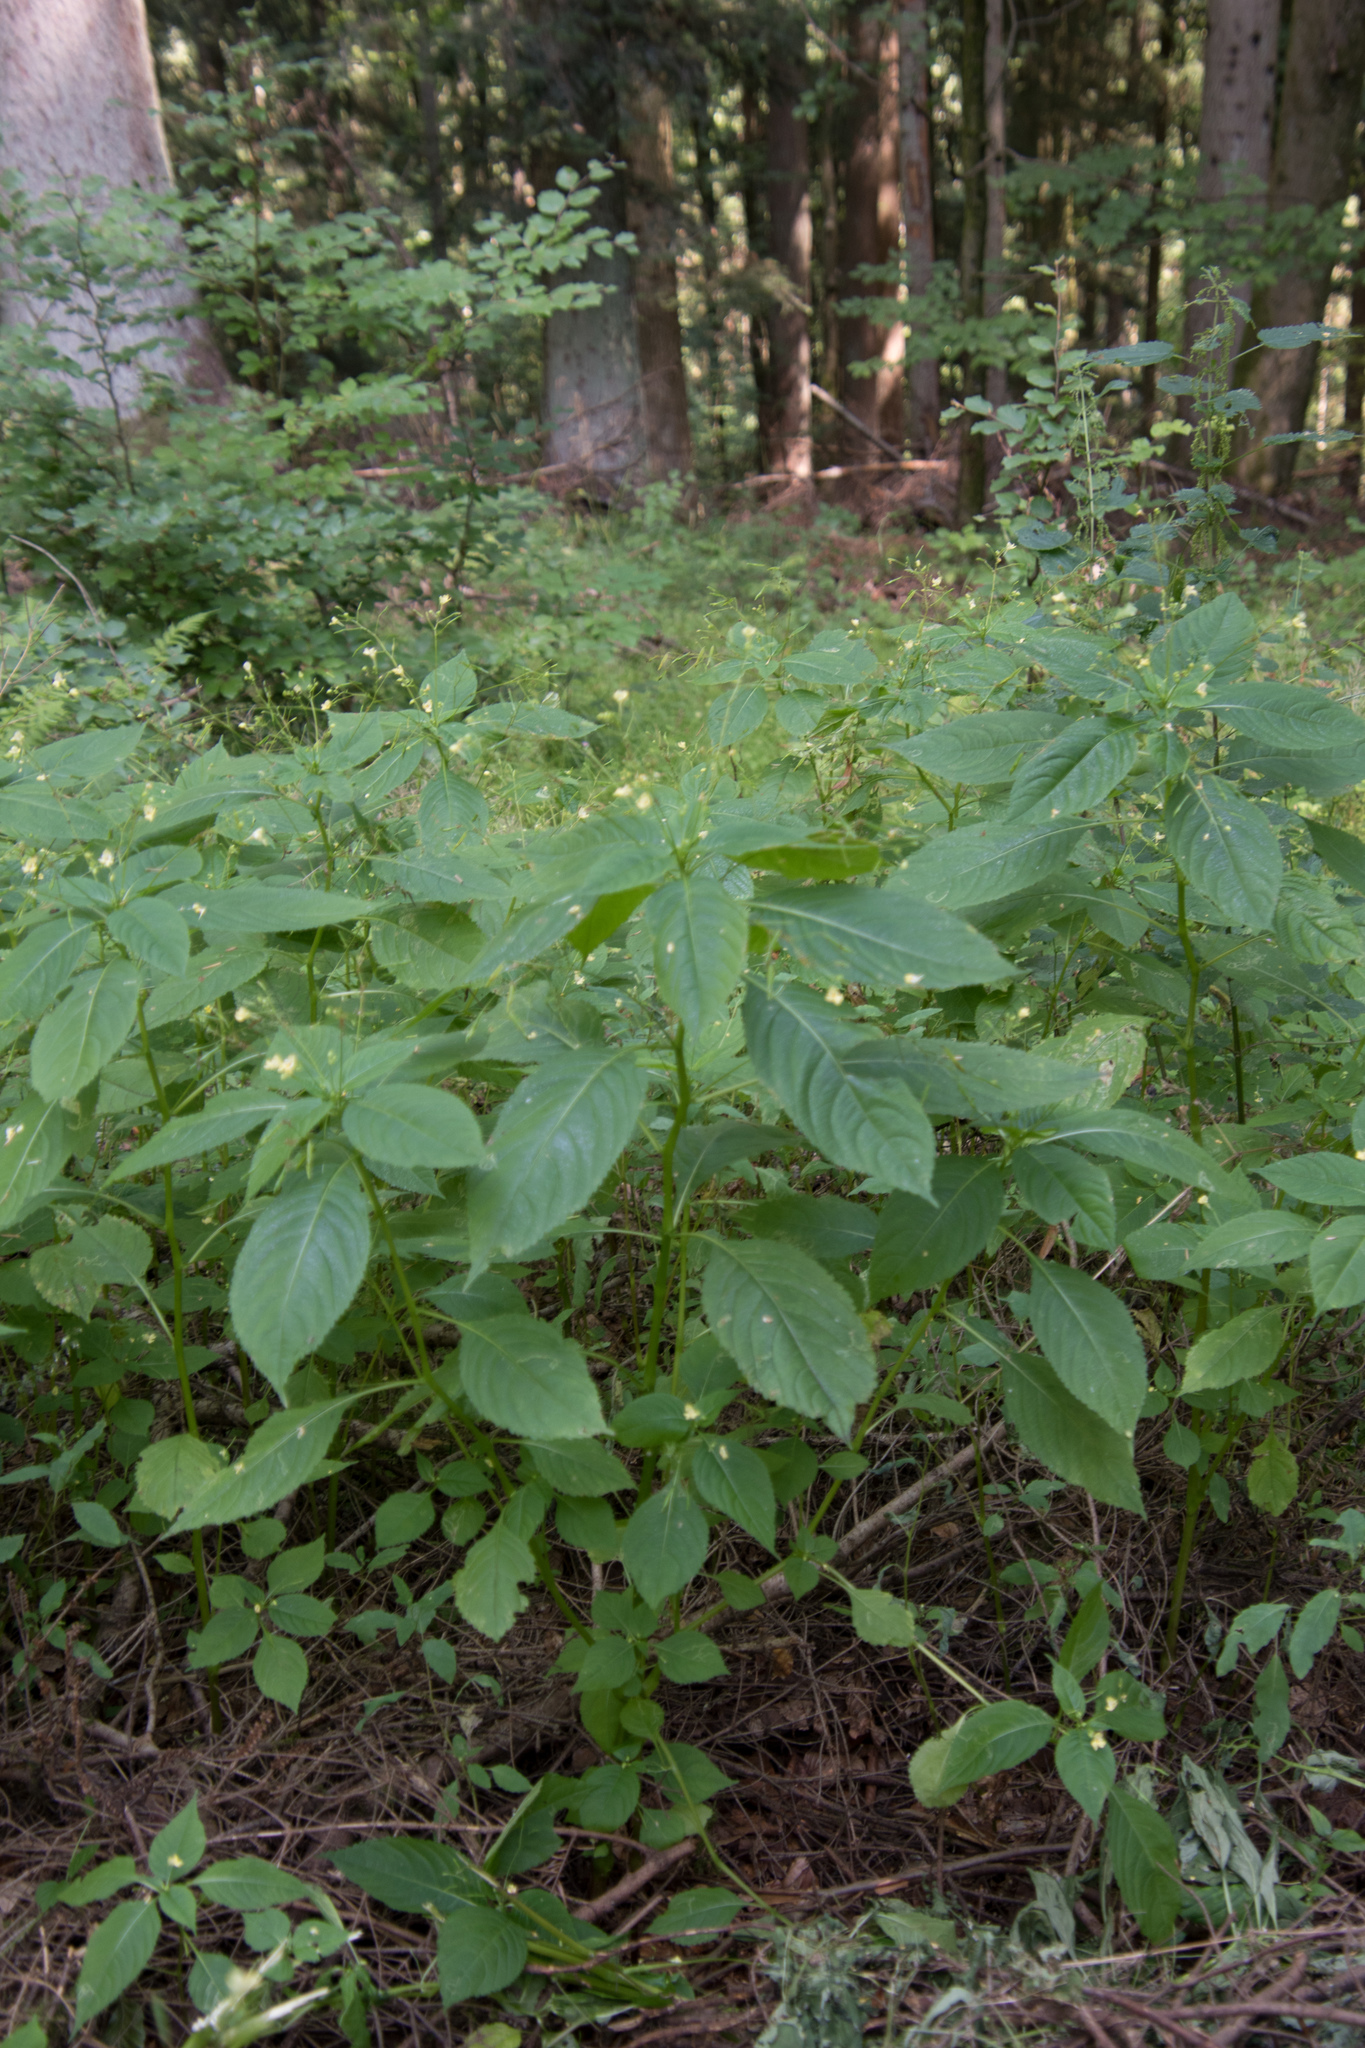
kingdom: Plantae
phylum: Tracheophyta
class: Magnoliopsida
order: Ericales
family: Balsaminaceae
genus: Impatiens
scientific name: Impatiens parviflora
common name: Small balsam
